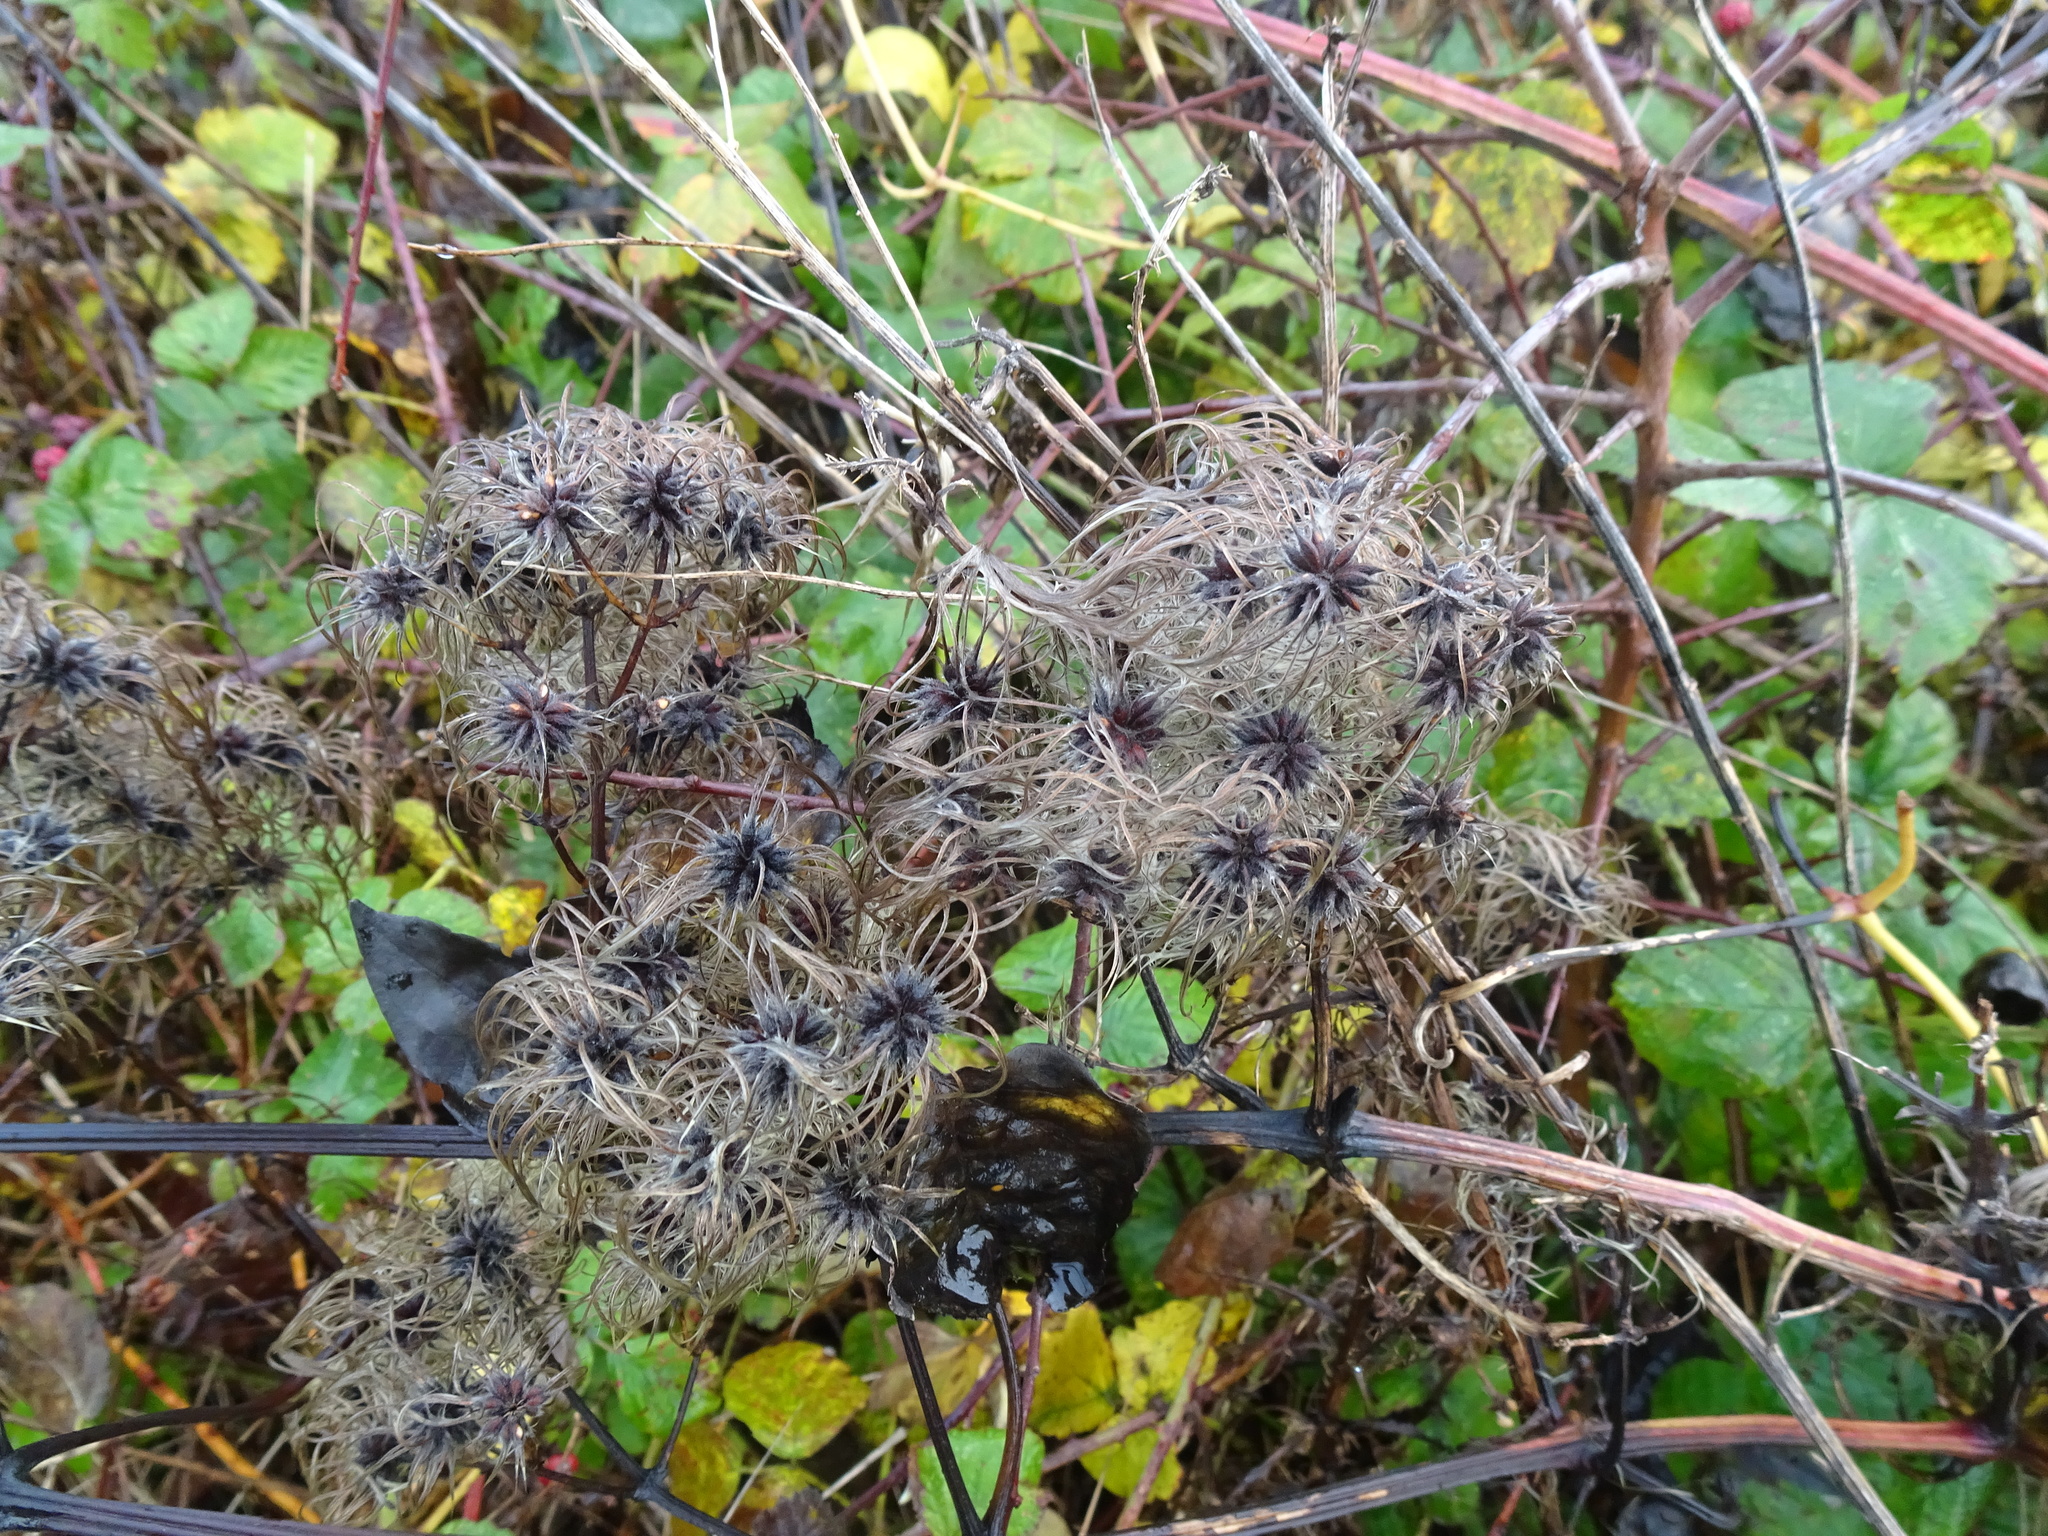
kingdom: Plantae
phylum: Tracheophyta
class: Magnoliopsida
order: Ranunculales
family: Ranunculaceae
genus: Clematis
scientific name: Clematis vitalba
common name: Evergreen clematis
